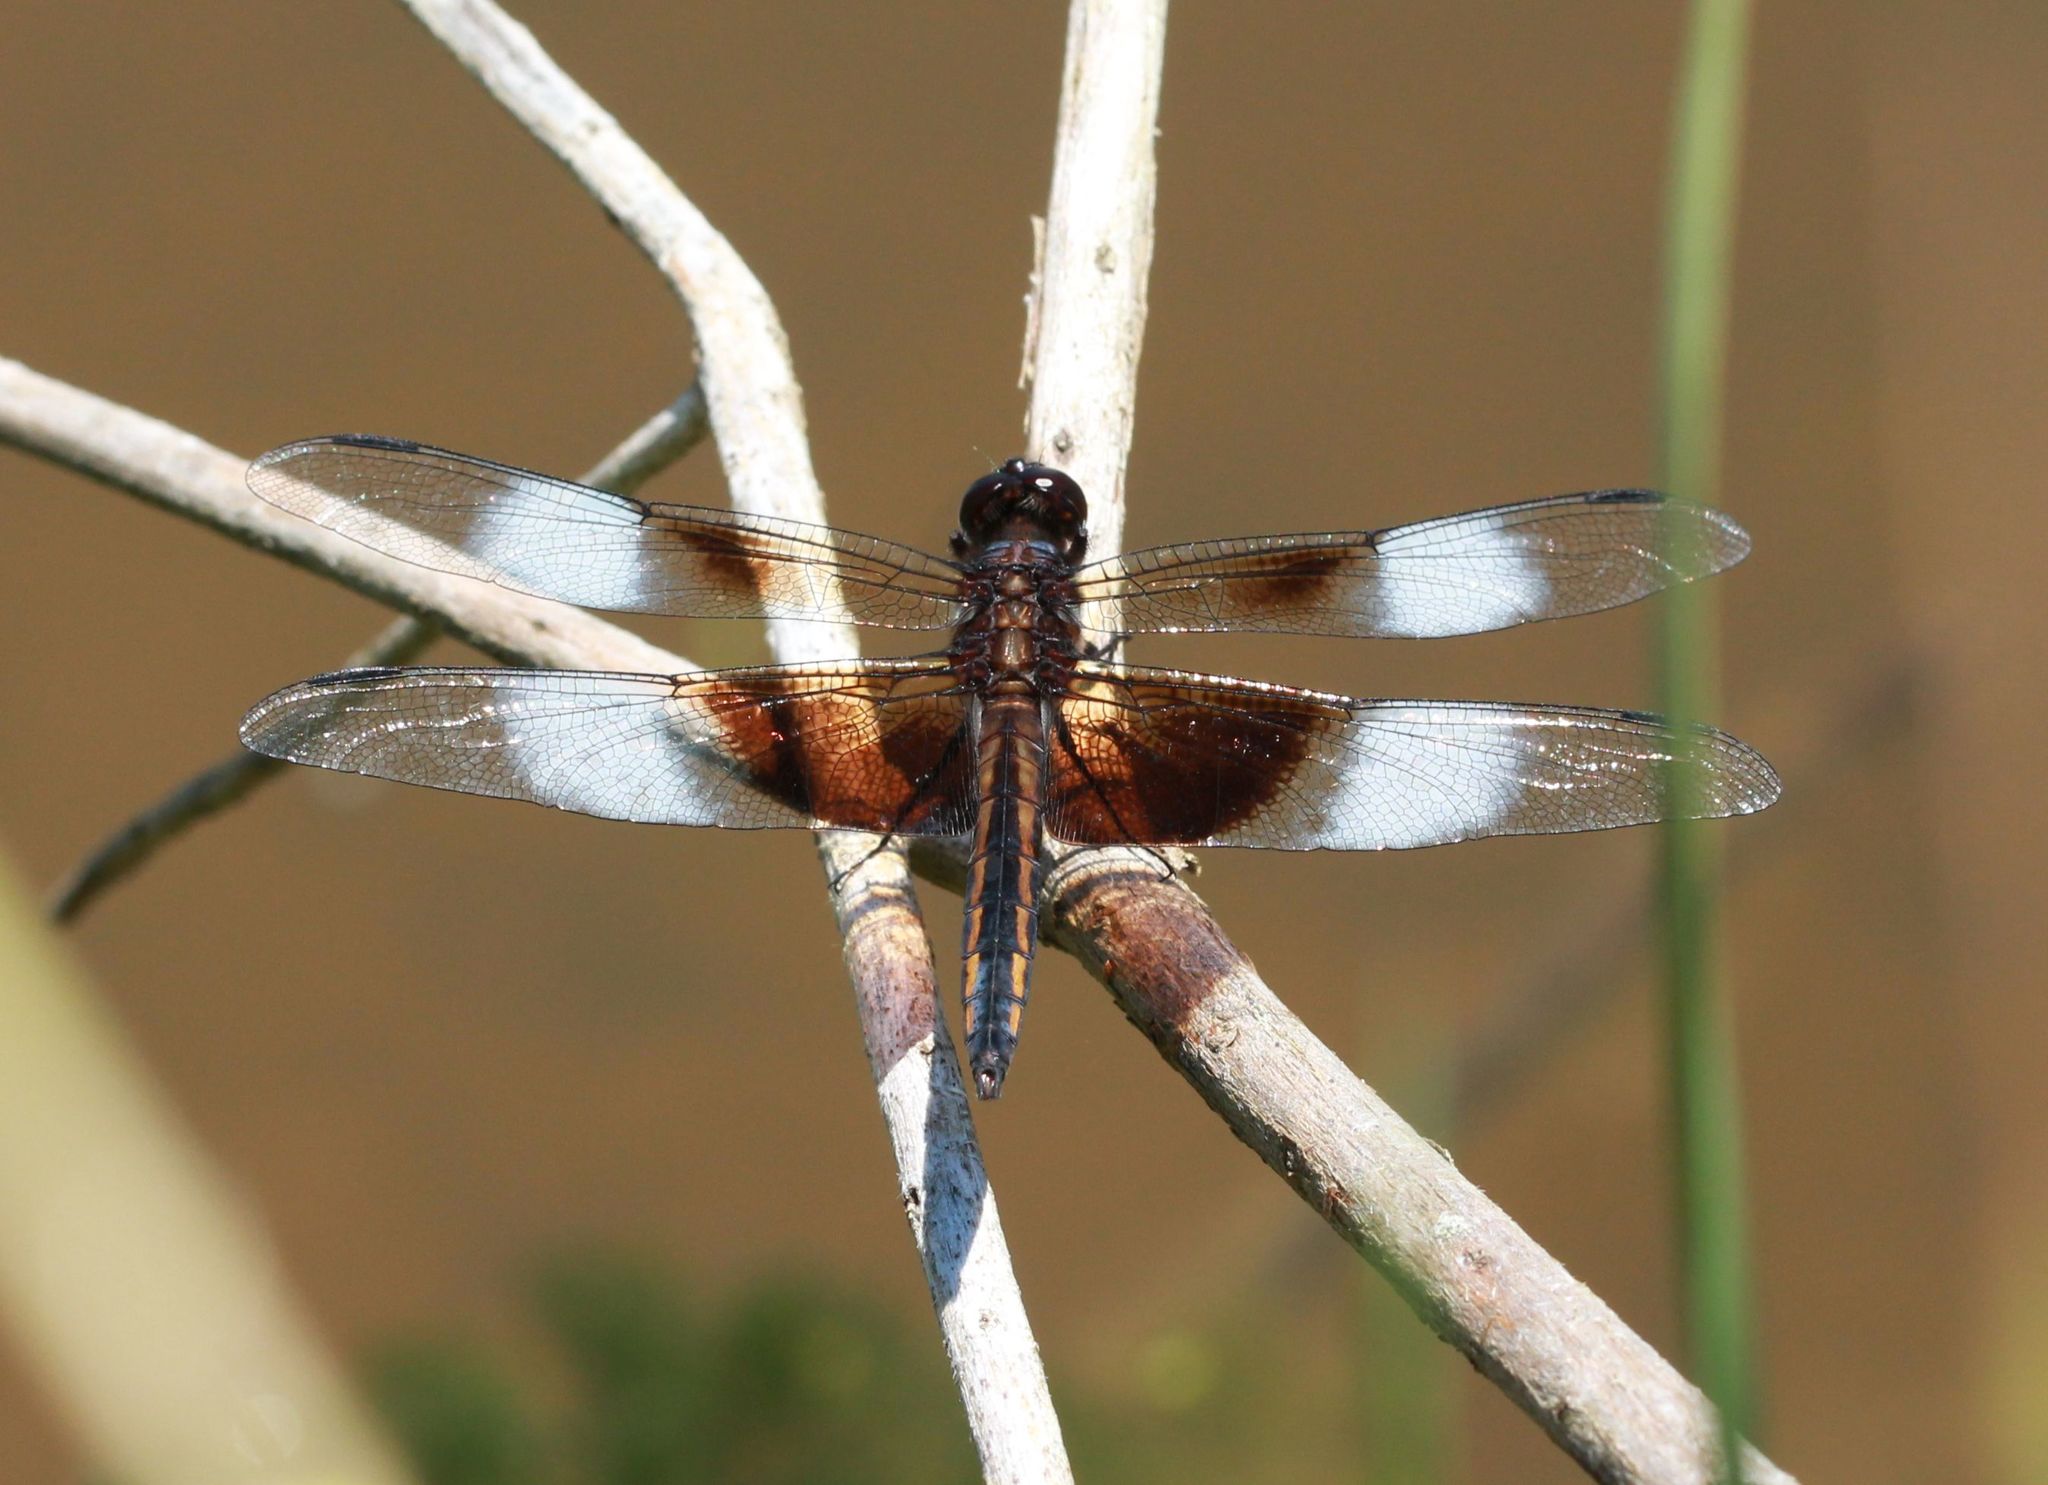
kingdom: Animalia
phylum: Arthropoda
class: Insecta
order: Odonata
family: Libellulidae
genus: Libellula
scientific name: Libellula luctuosa
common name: Widow skimmer
